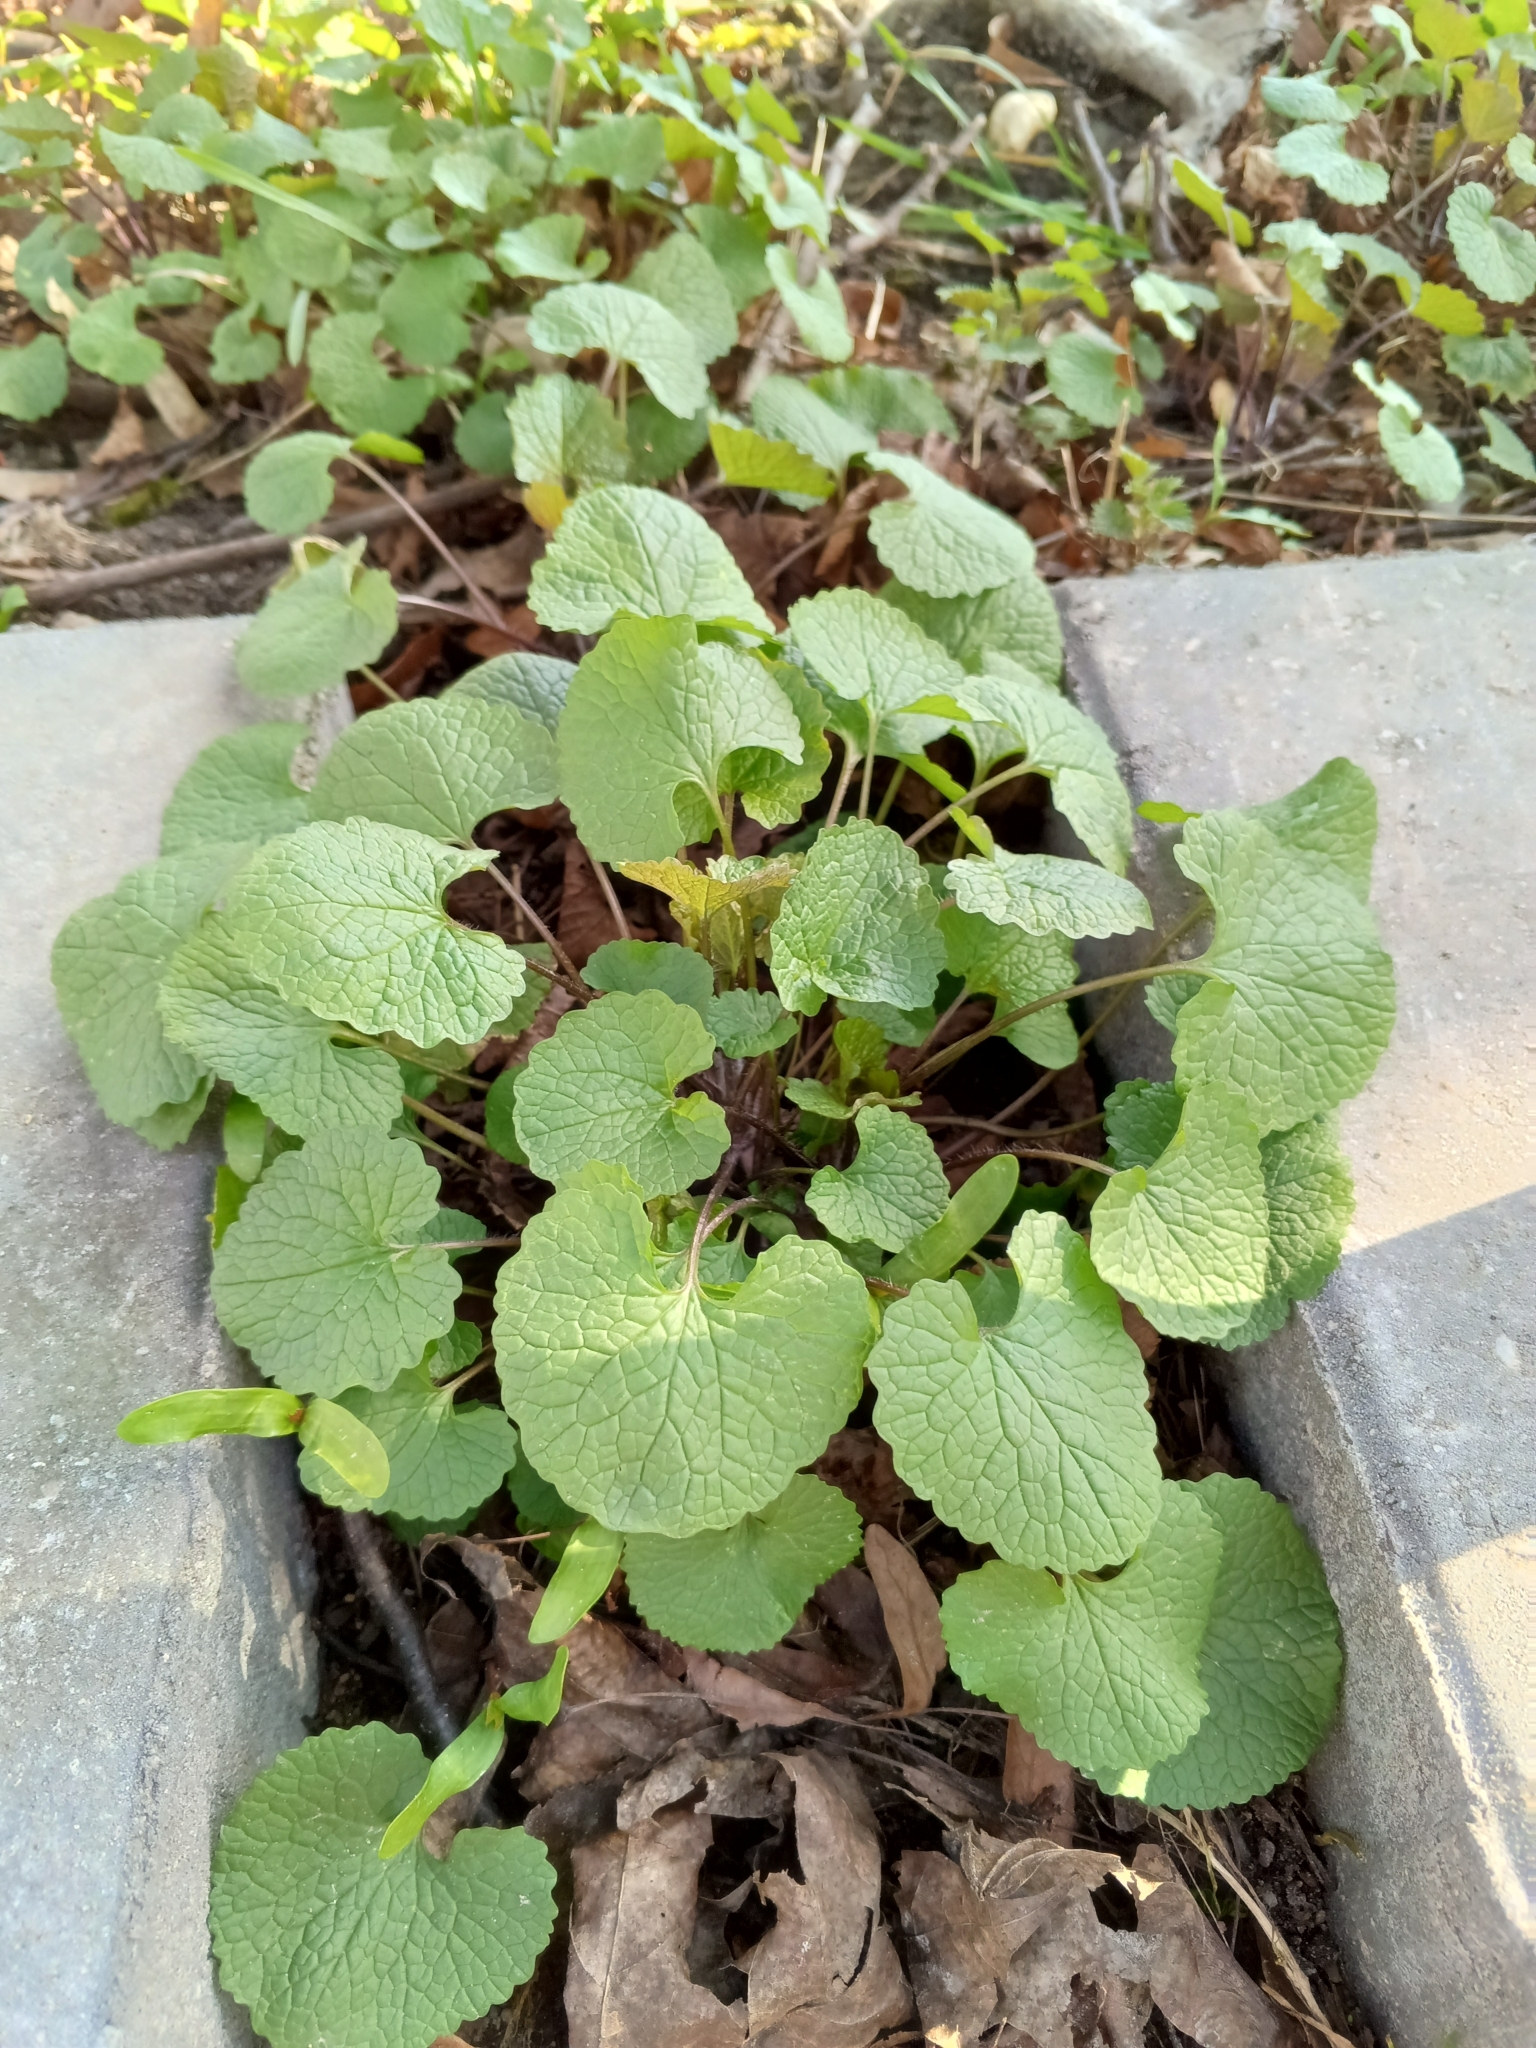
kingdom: Plantae
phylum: Tracheophyta
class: Magnoliopsida
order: Brassicales
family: Brassicaceae
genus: Alliaria
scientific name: Alliaria petiolata
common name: Garlic mustard
